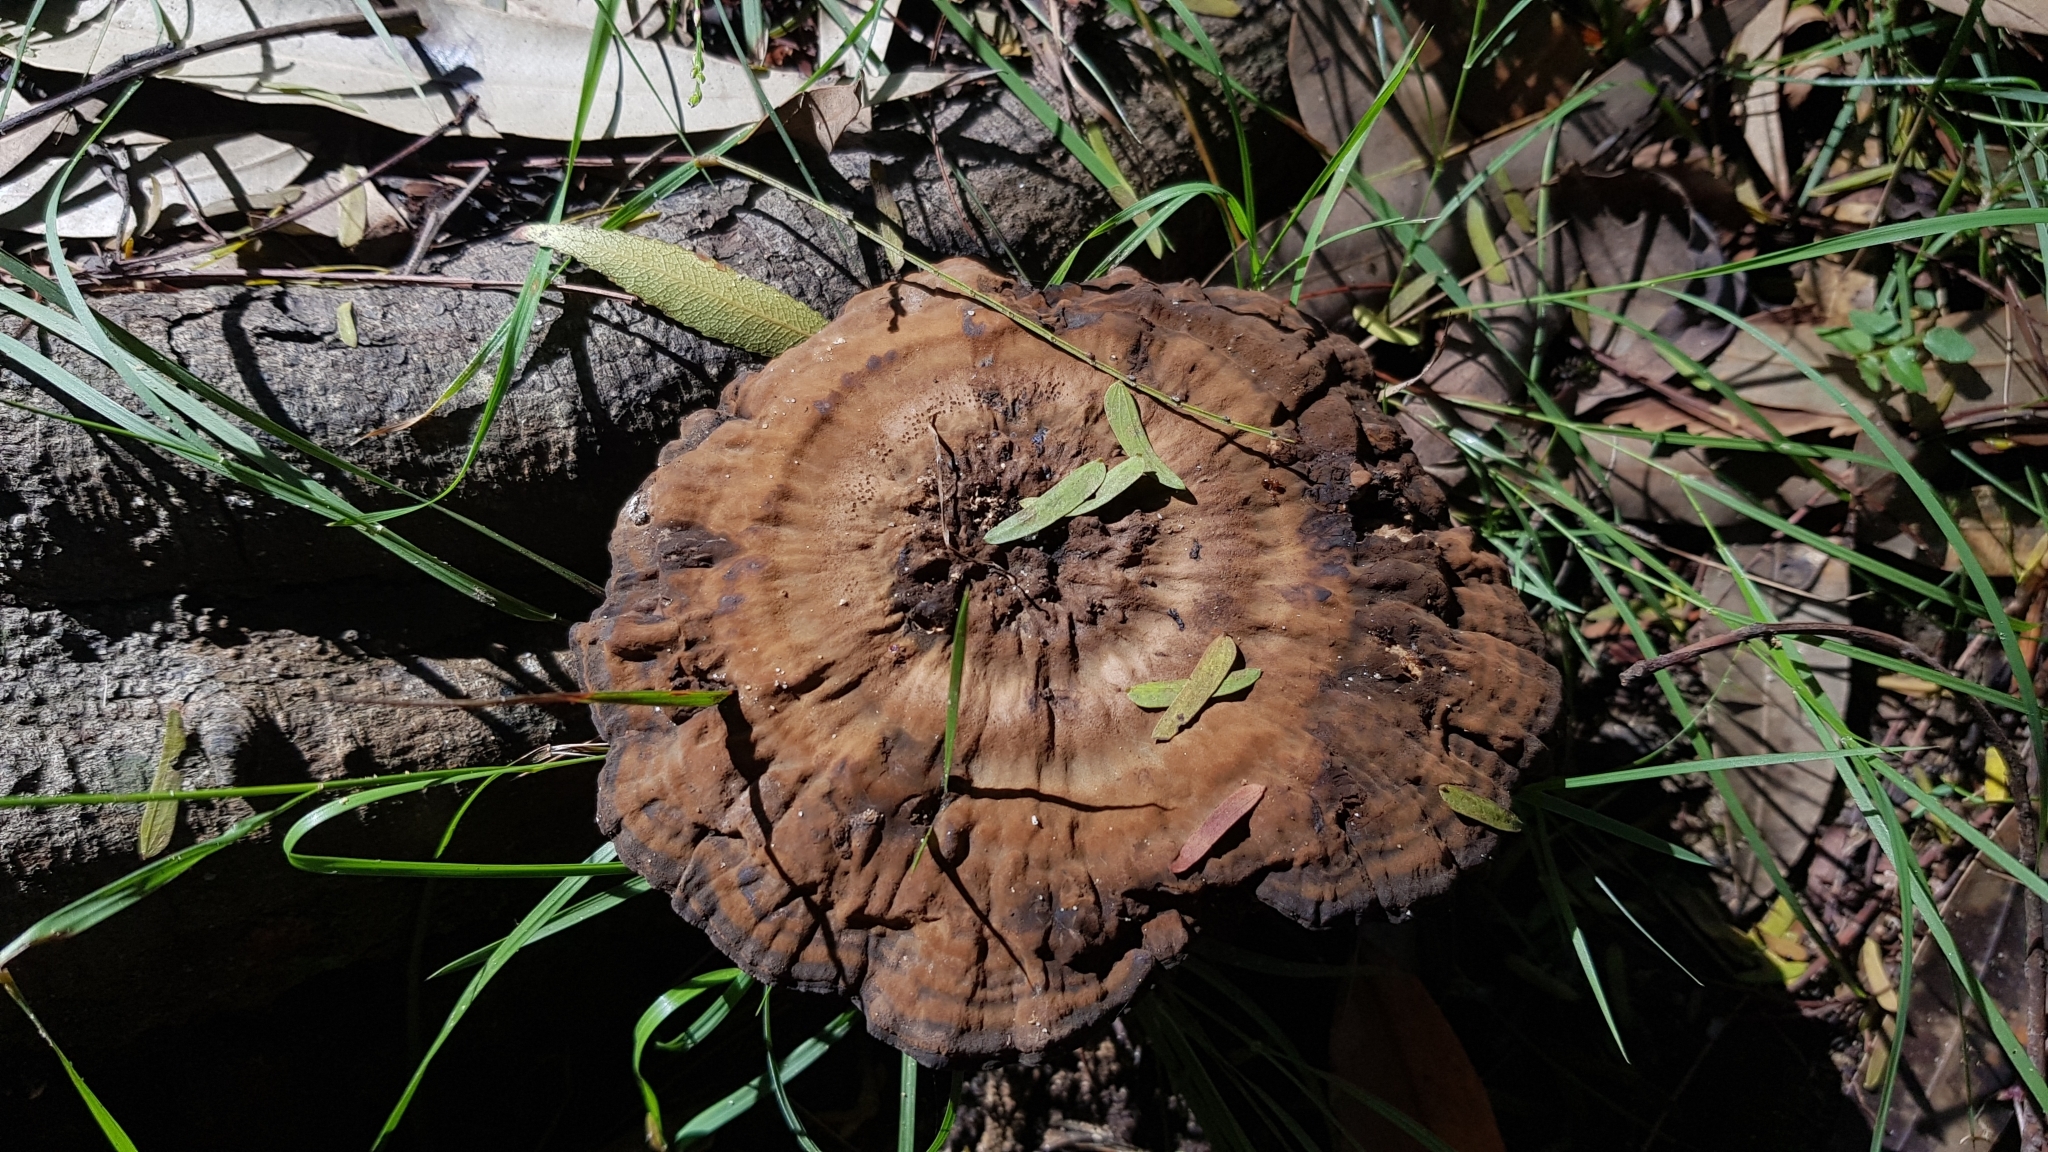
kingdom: Fungi
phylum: Basidiomycota
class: Agaricomycetes
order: Polyporales
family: Ganodermataceae
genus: Sanguinoderma
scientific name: Sanguinoderma rude
